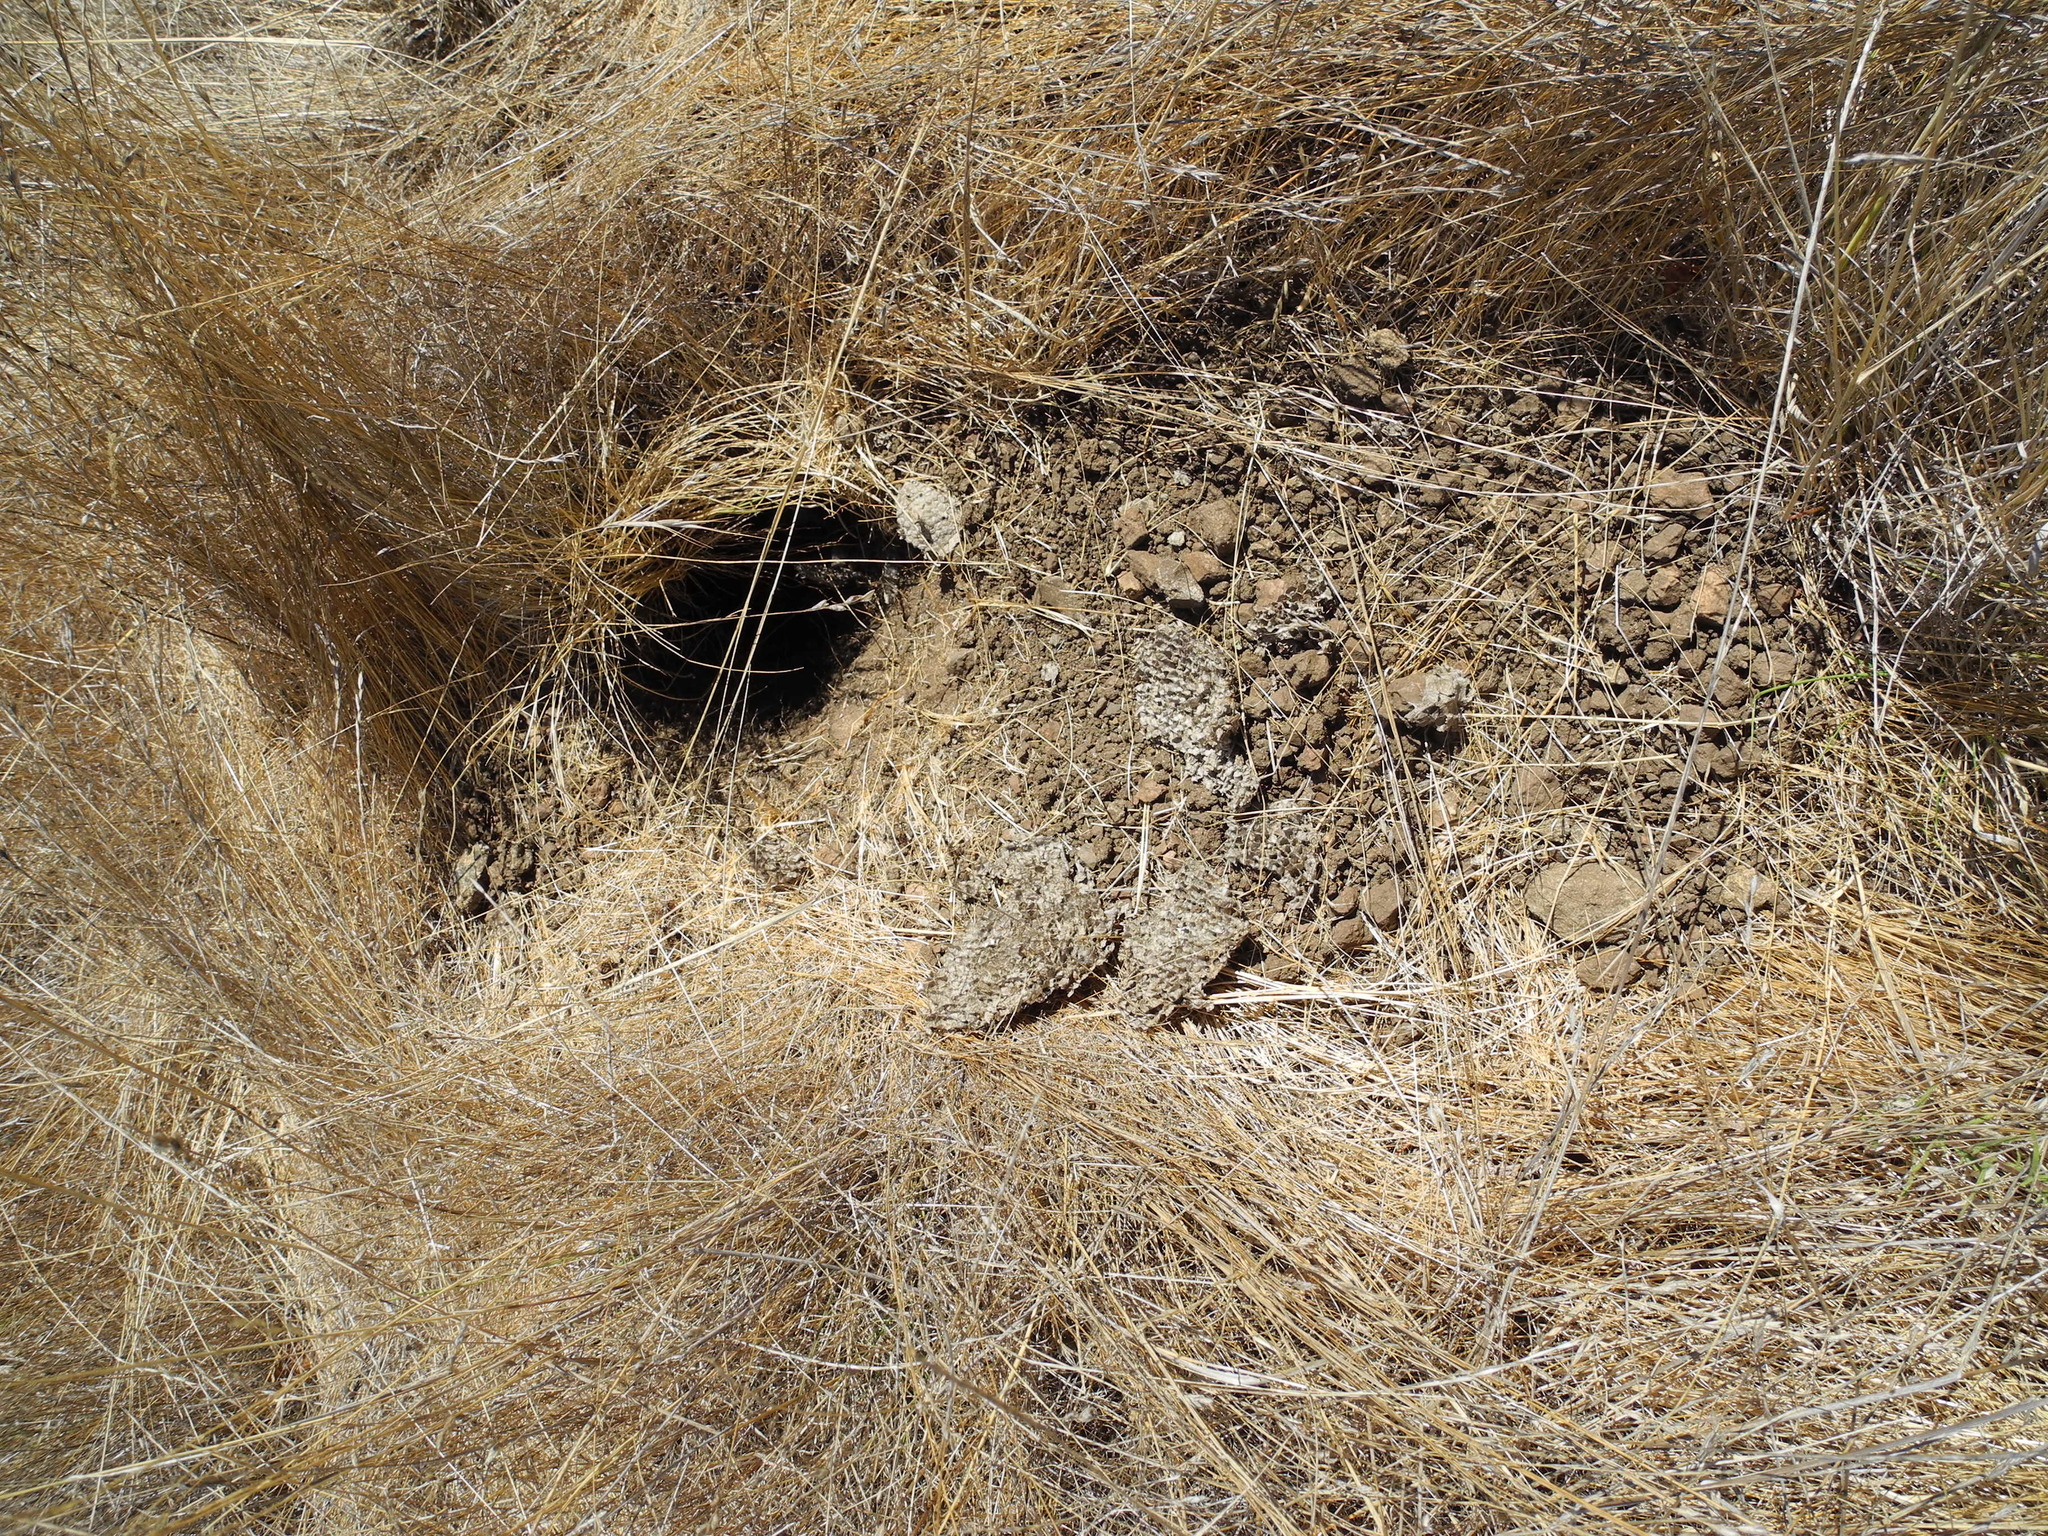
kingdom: Animalia
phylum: Arthropoda
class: Insecta
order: Hymenoptera
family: Vespidae
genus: Vespula
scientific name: Vespula
